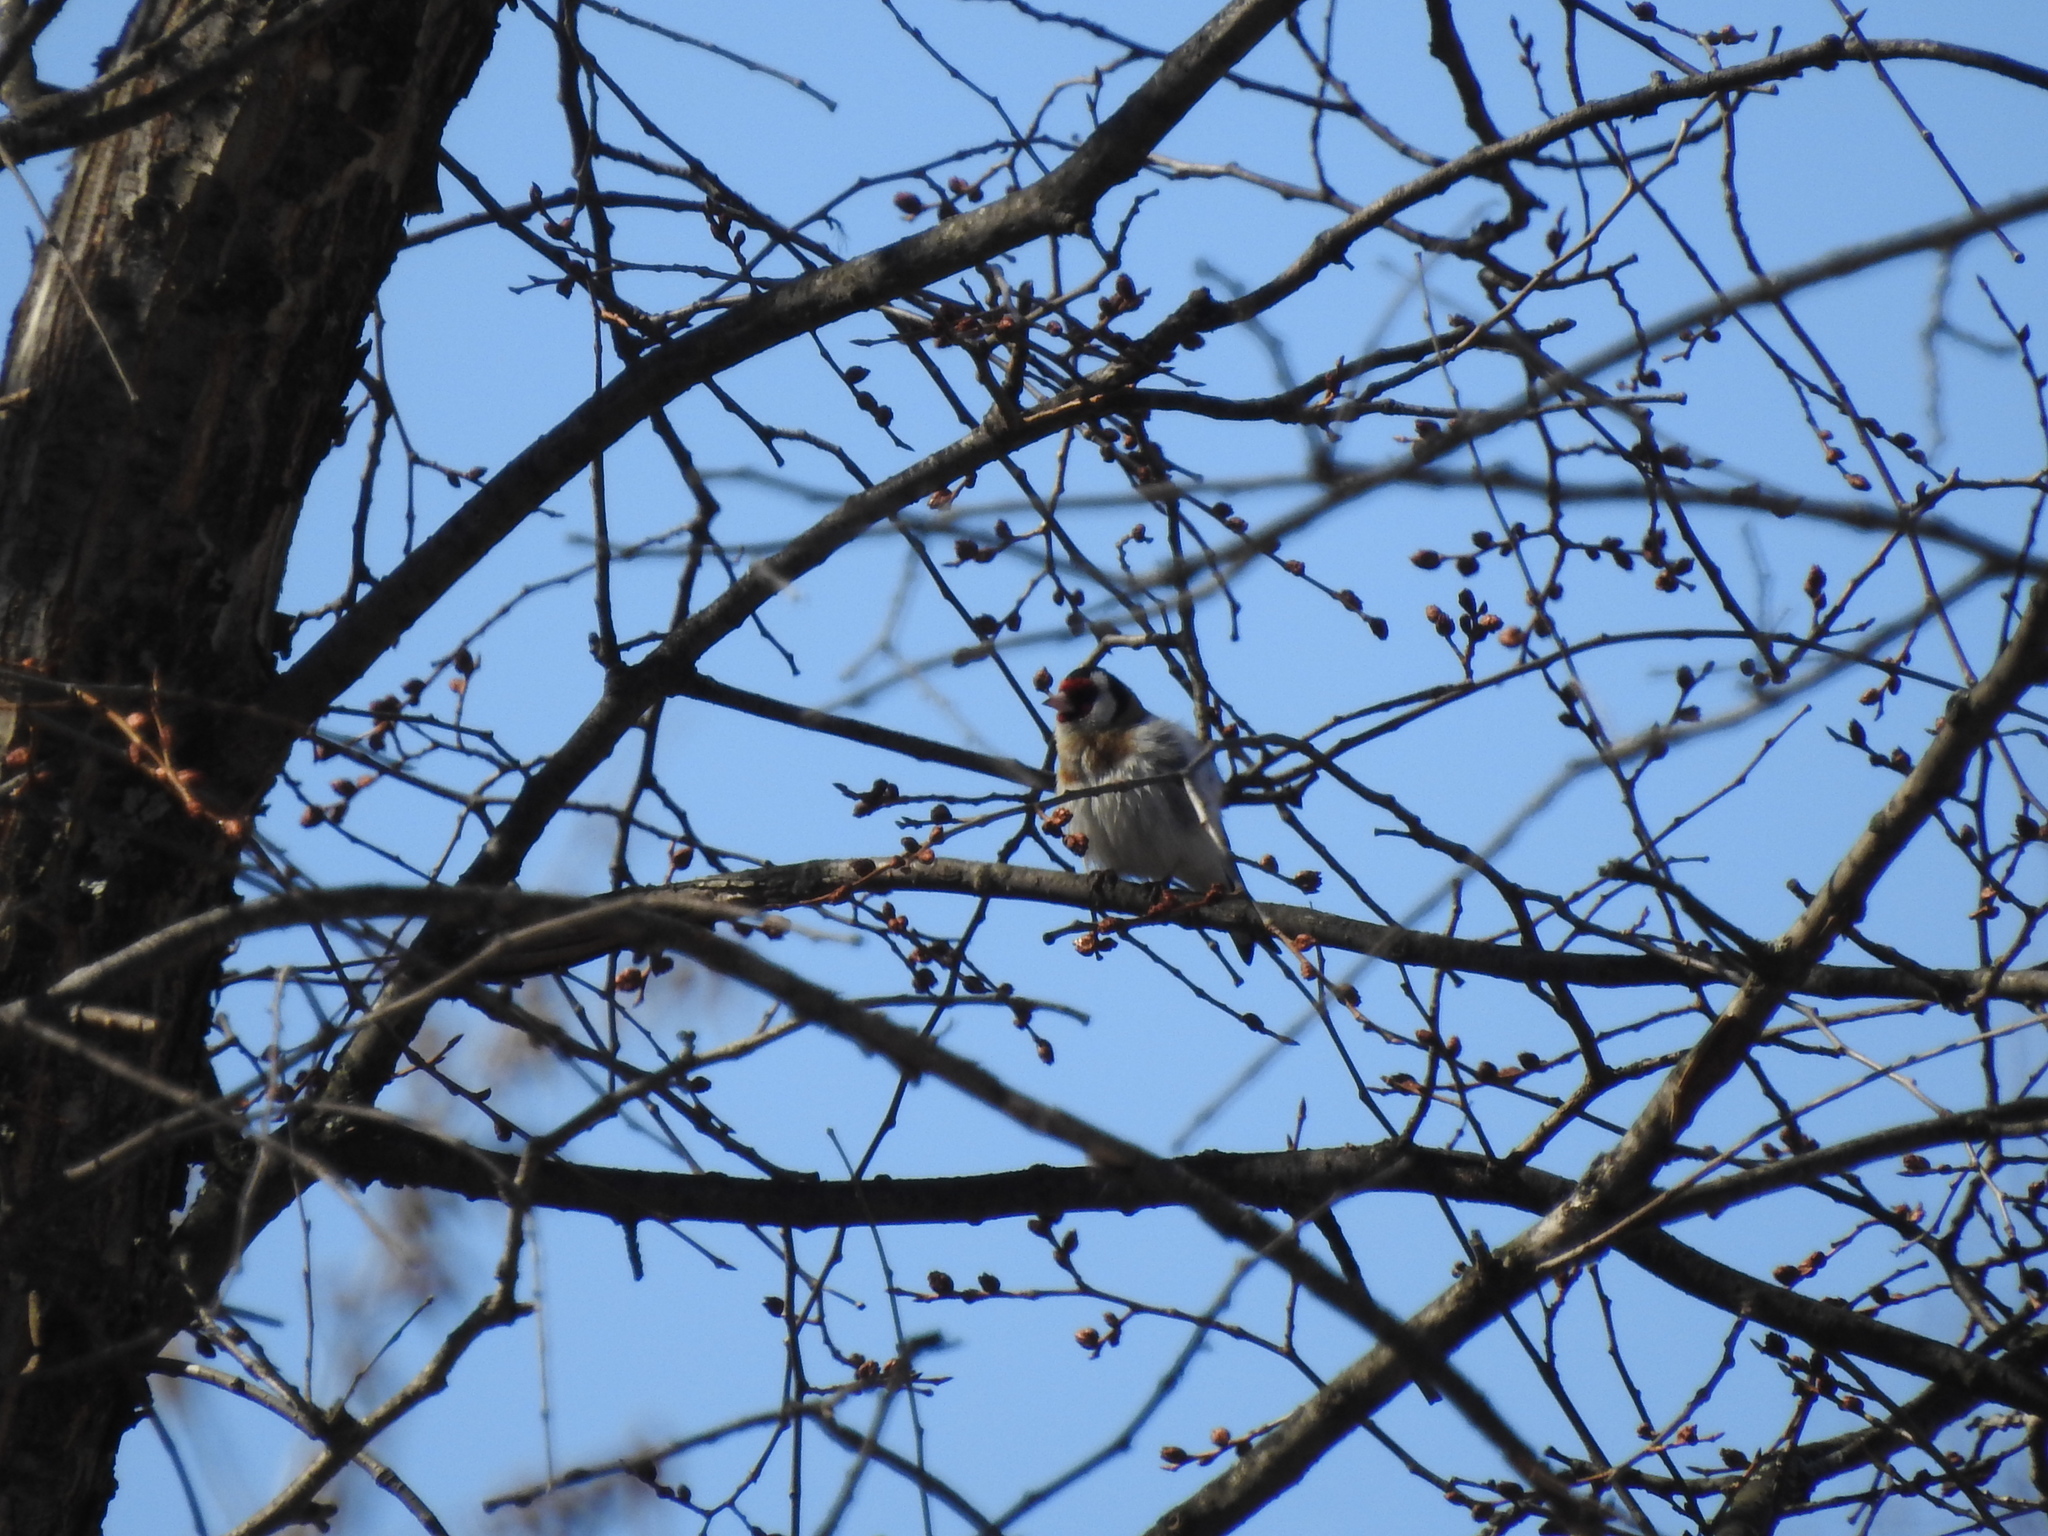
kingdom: Animalia
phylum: Chordata
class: Aves
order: Passeriformes
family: Fringillidae
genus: Carduelis
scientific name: Carduelis carduelis
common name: European goldfinch
